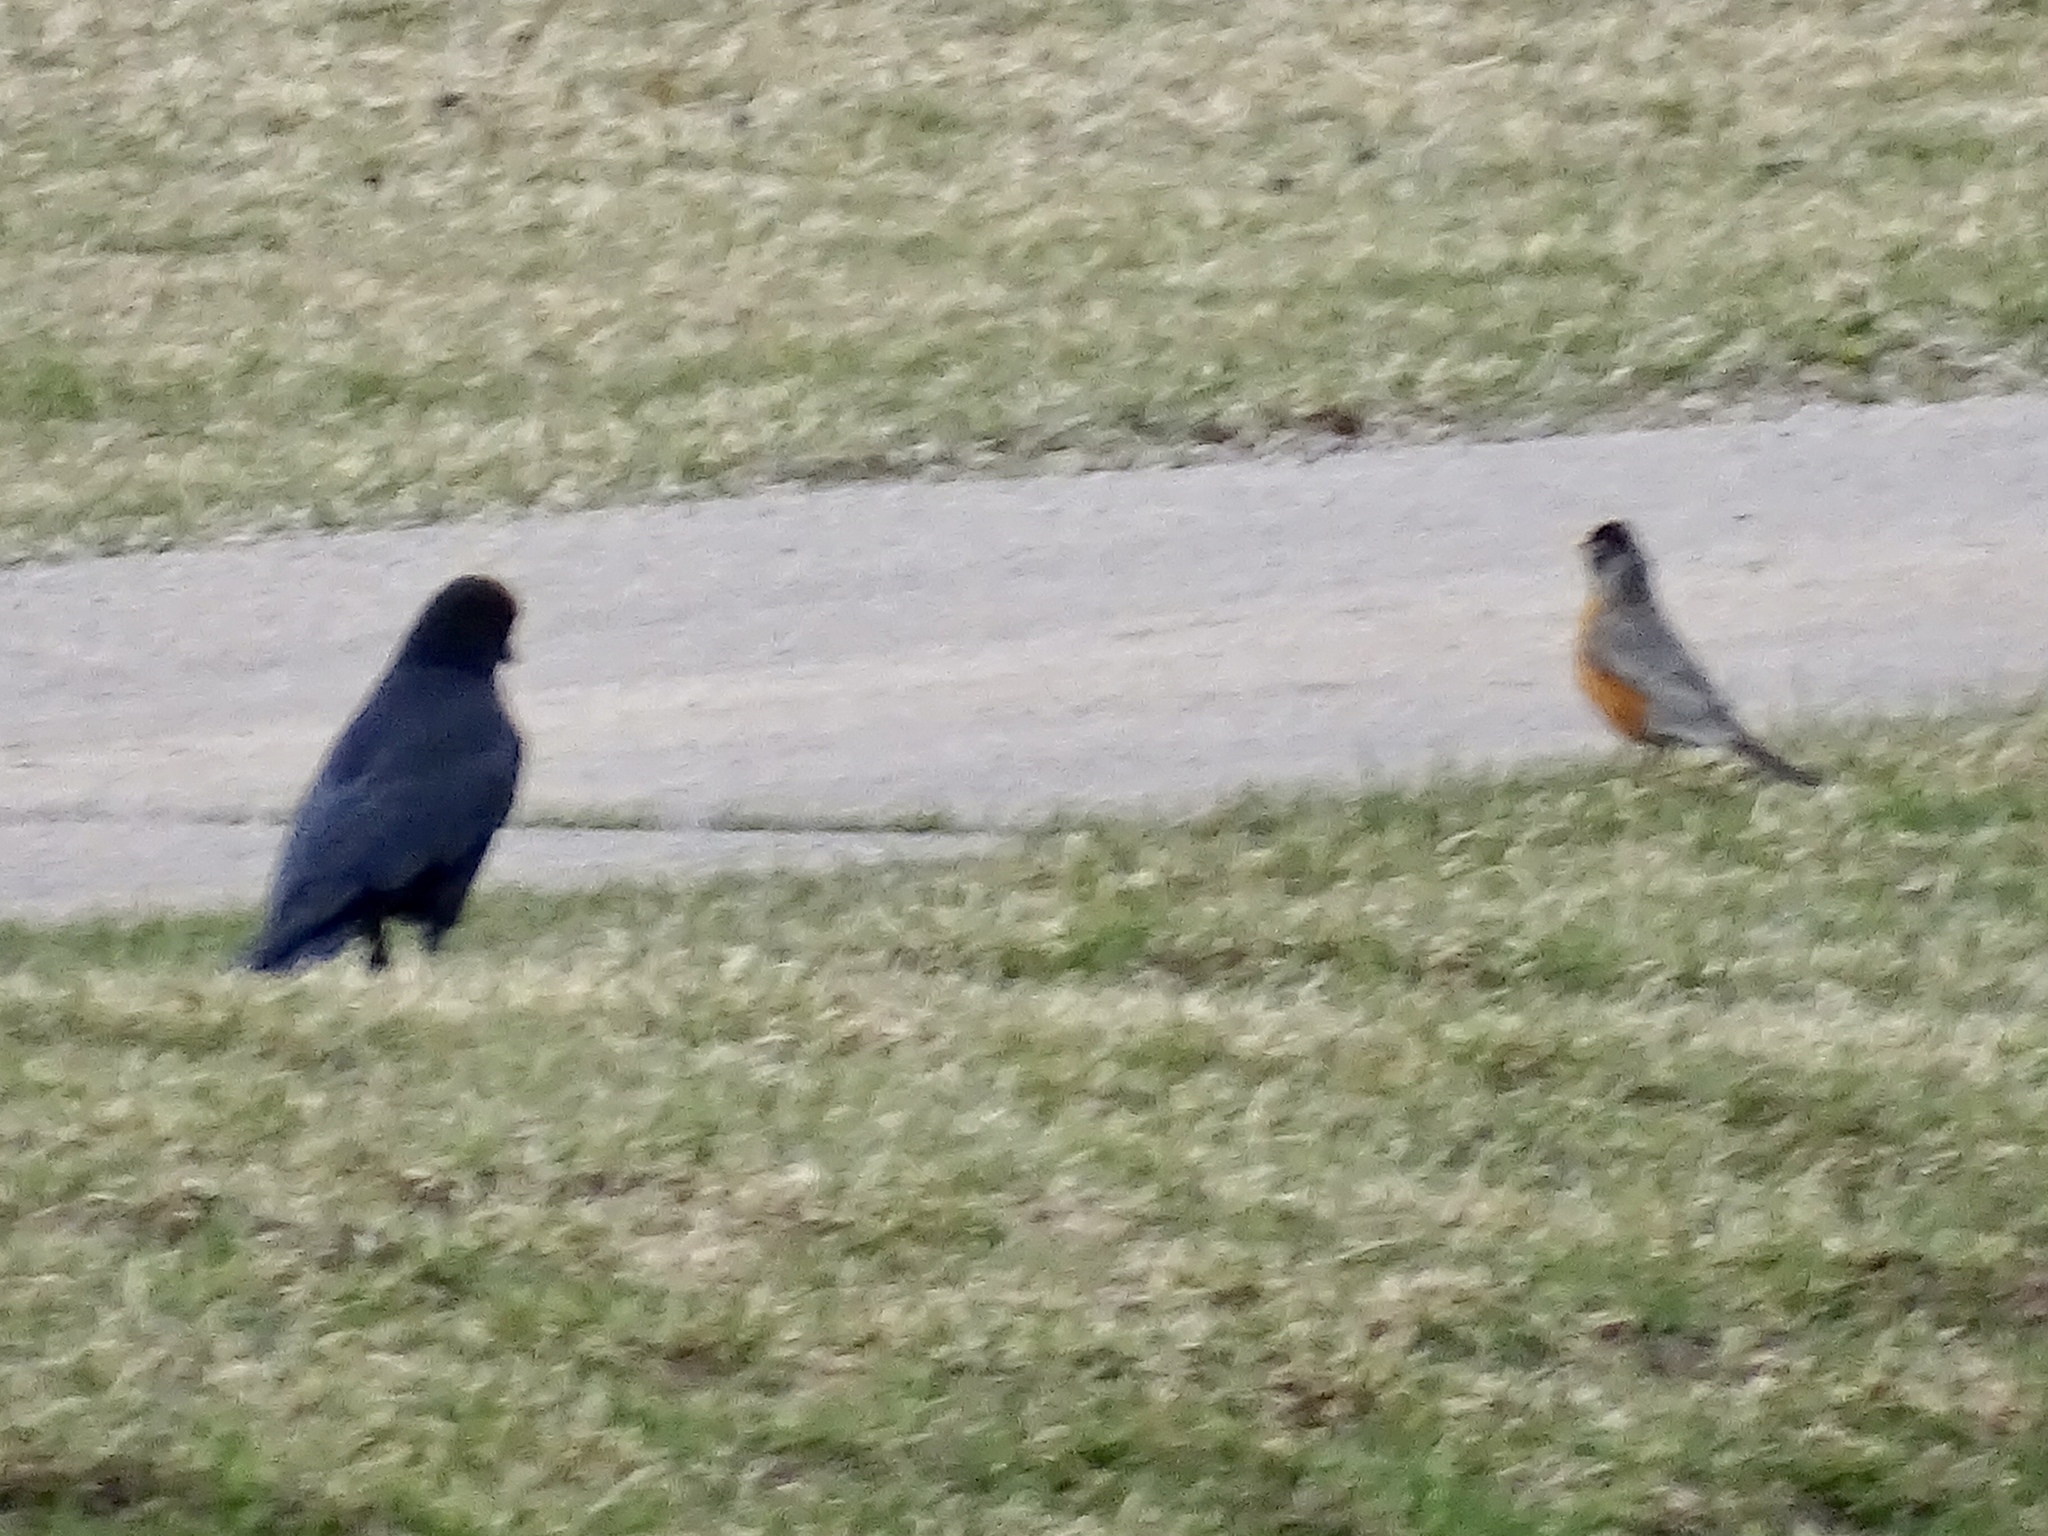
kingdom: Animalia
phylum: Chordata
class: Aves
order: Passeriformes
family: Corvidae
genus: Corvus
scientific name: Corvus brachyrhynchos
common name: American crow
